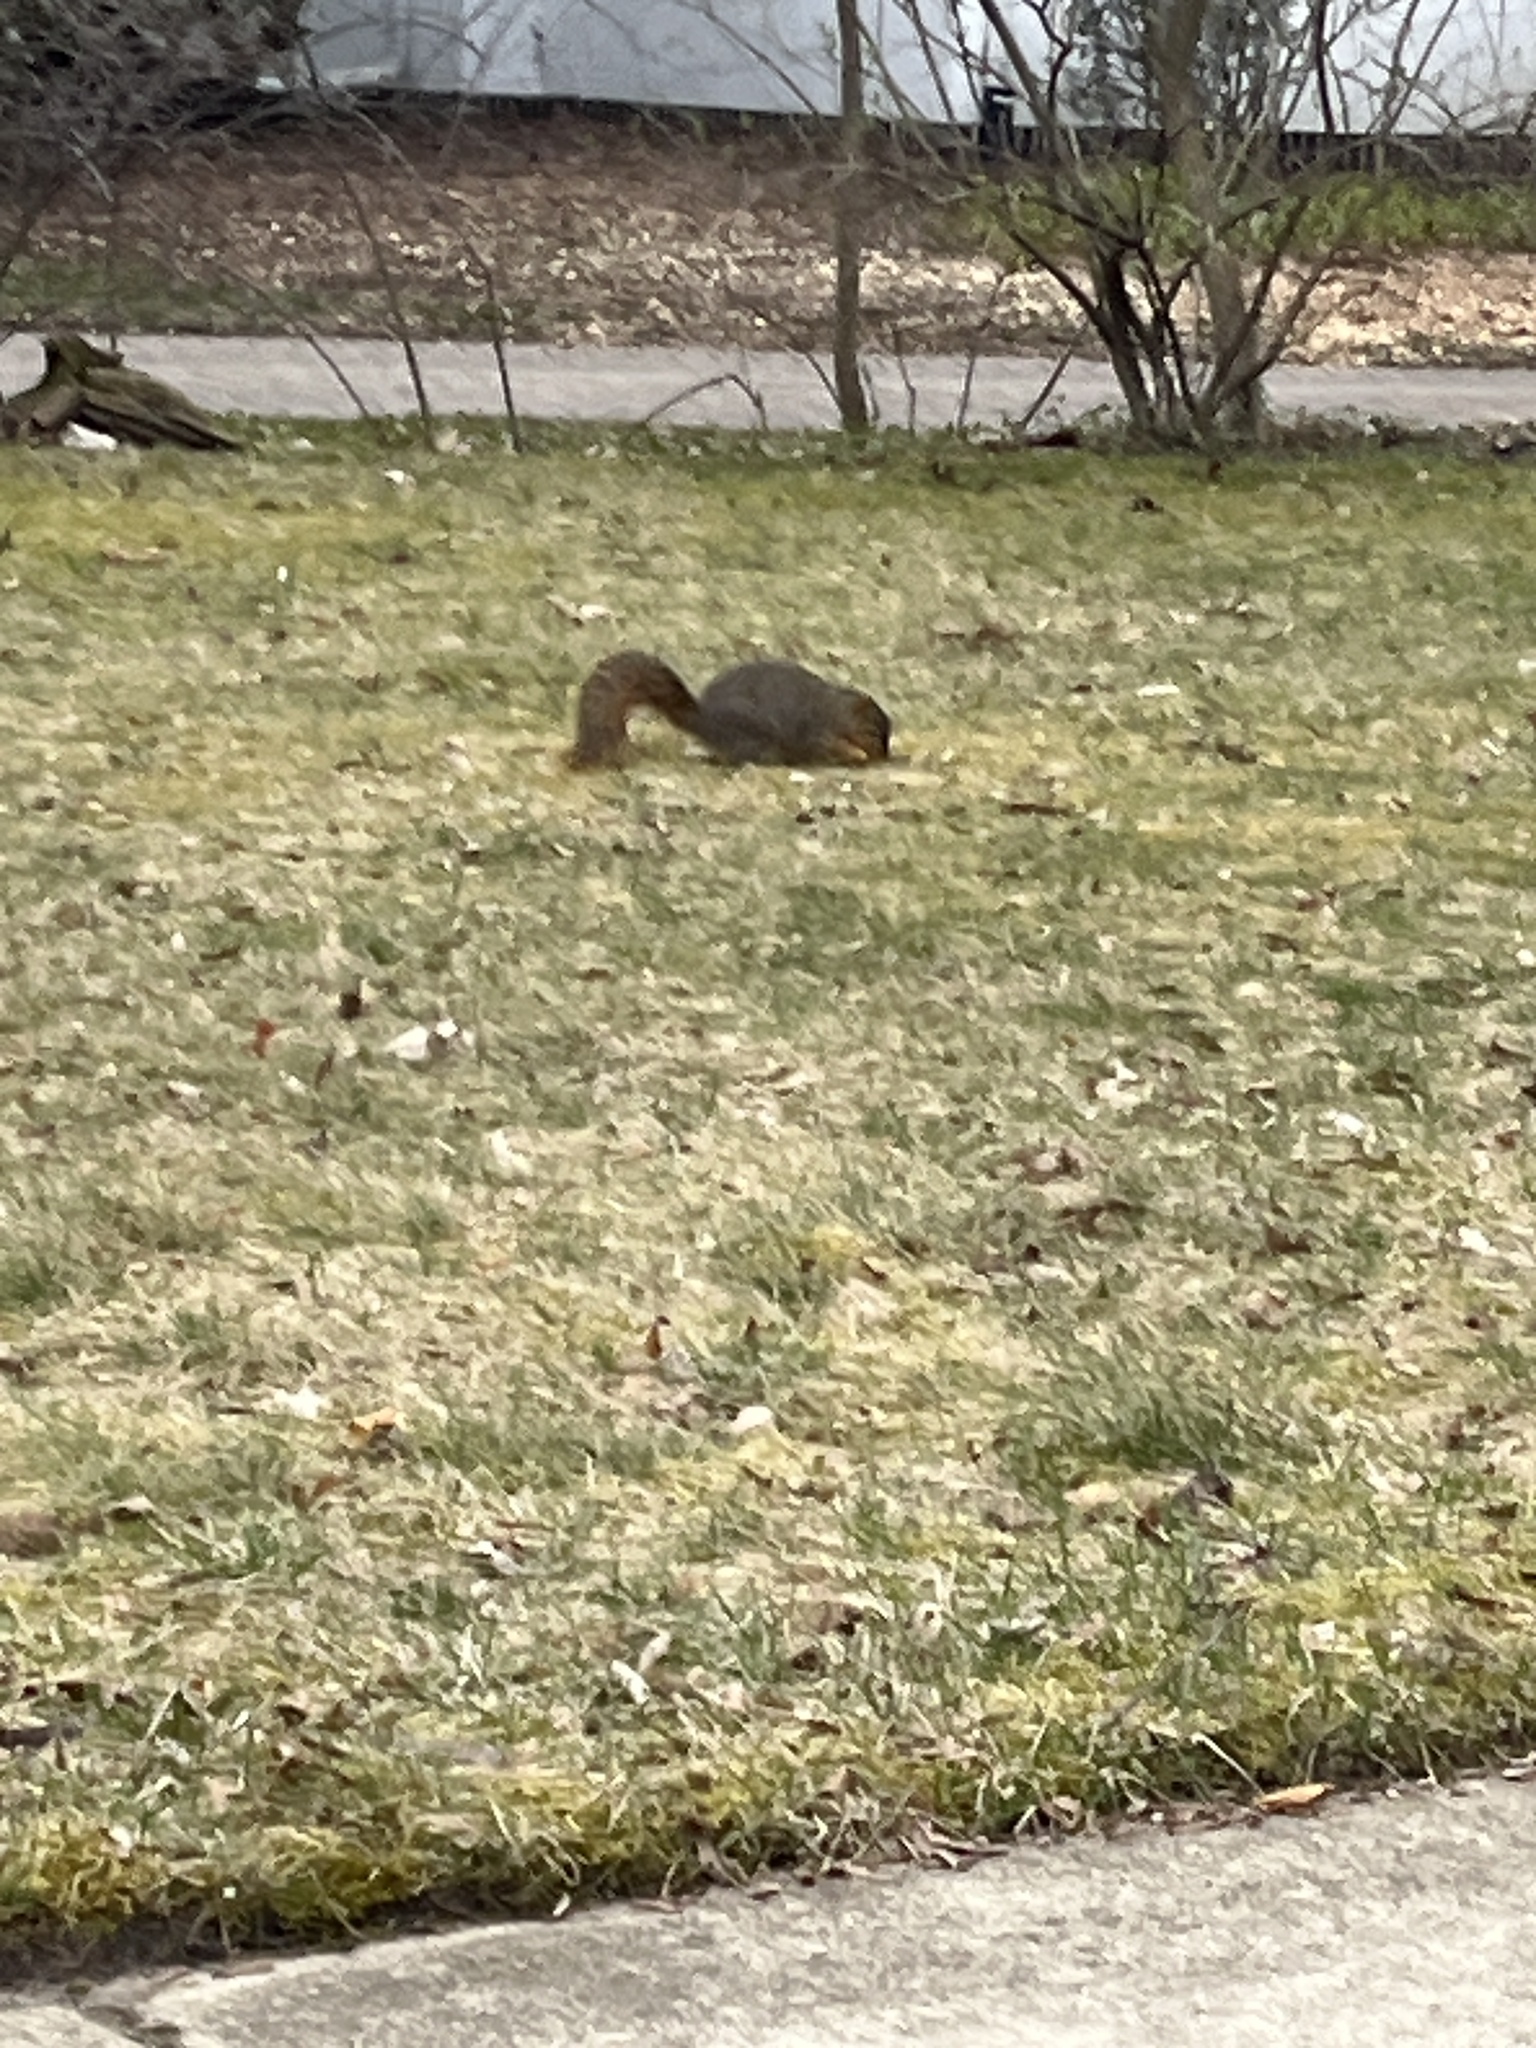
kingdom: Animalia
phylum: Chordata
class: Mammalia
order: Rodentia
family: Sciuridae
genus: Sciurus
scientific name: Sciurus niger
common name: Fox squirrel
